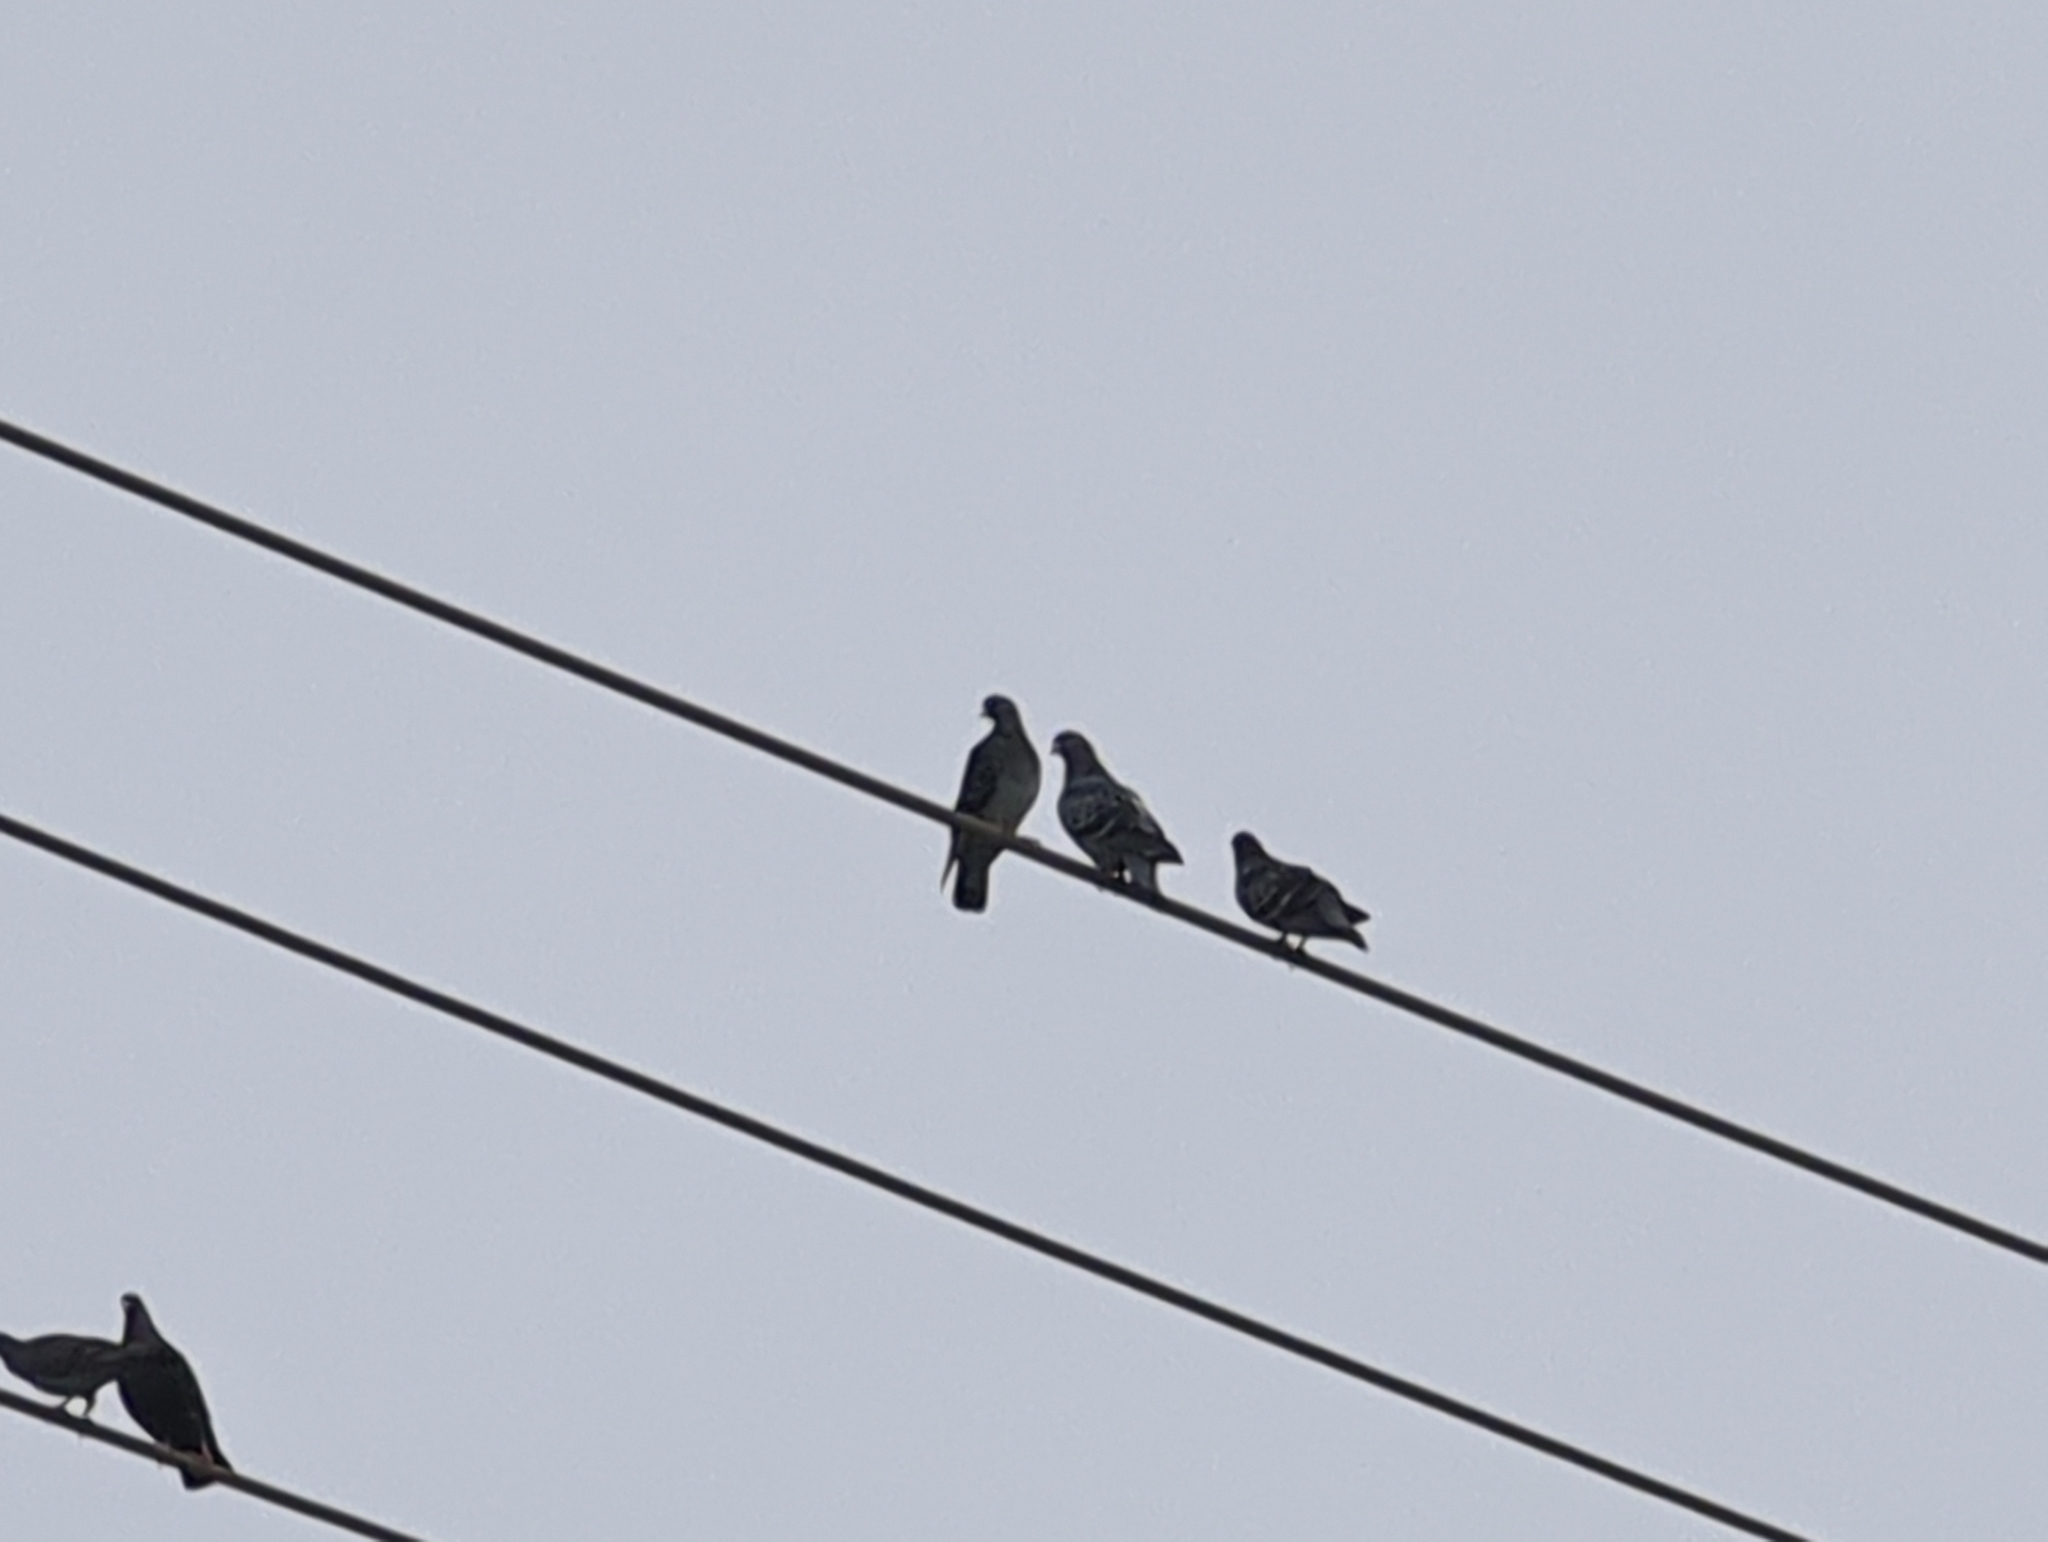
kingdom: Animalia
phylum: Chordata
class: Aves
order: Columbiformes
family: Columbidae
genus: Columba
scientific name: Columba livia
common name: Rock pigeon
